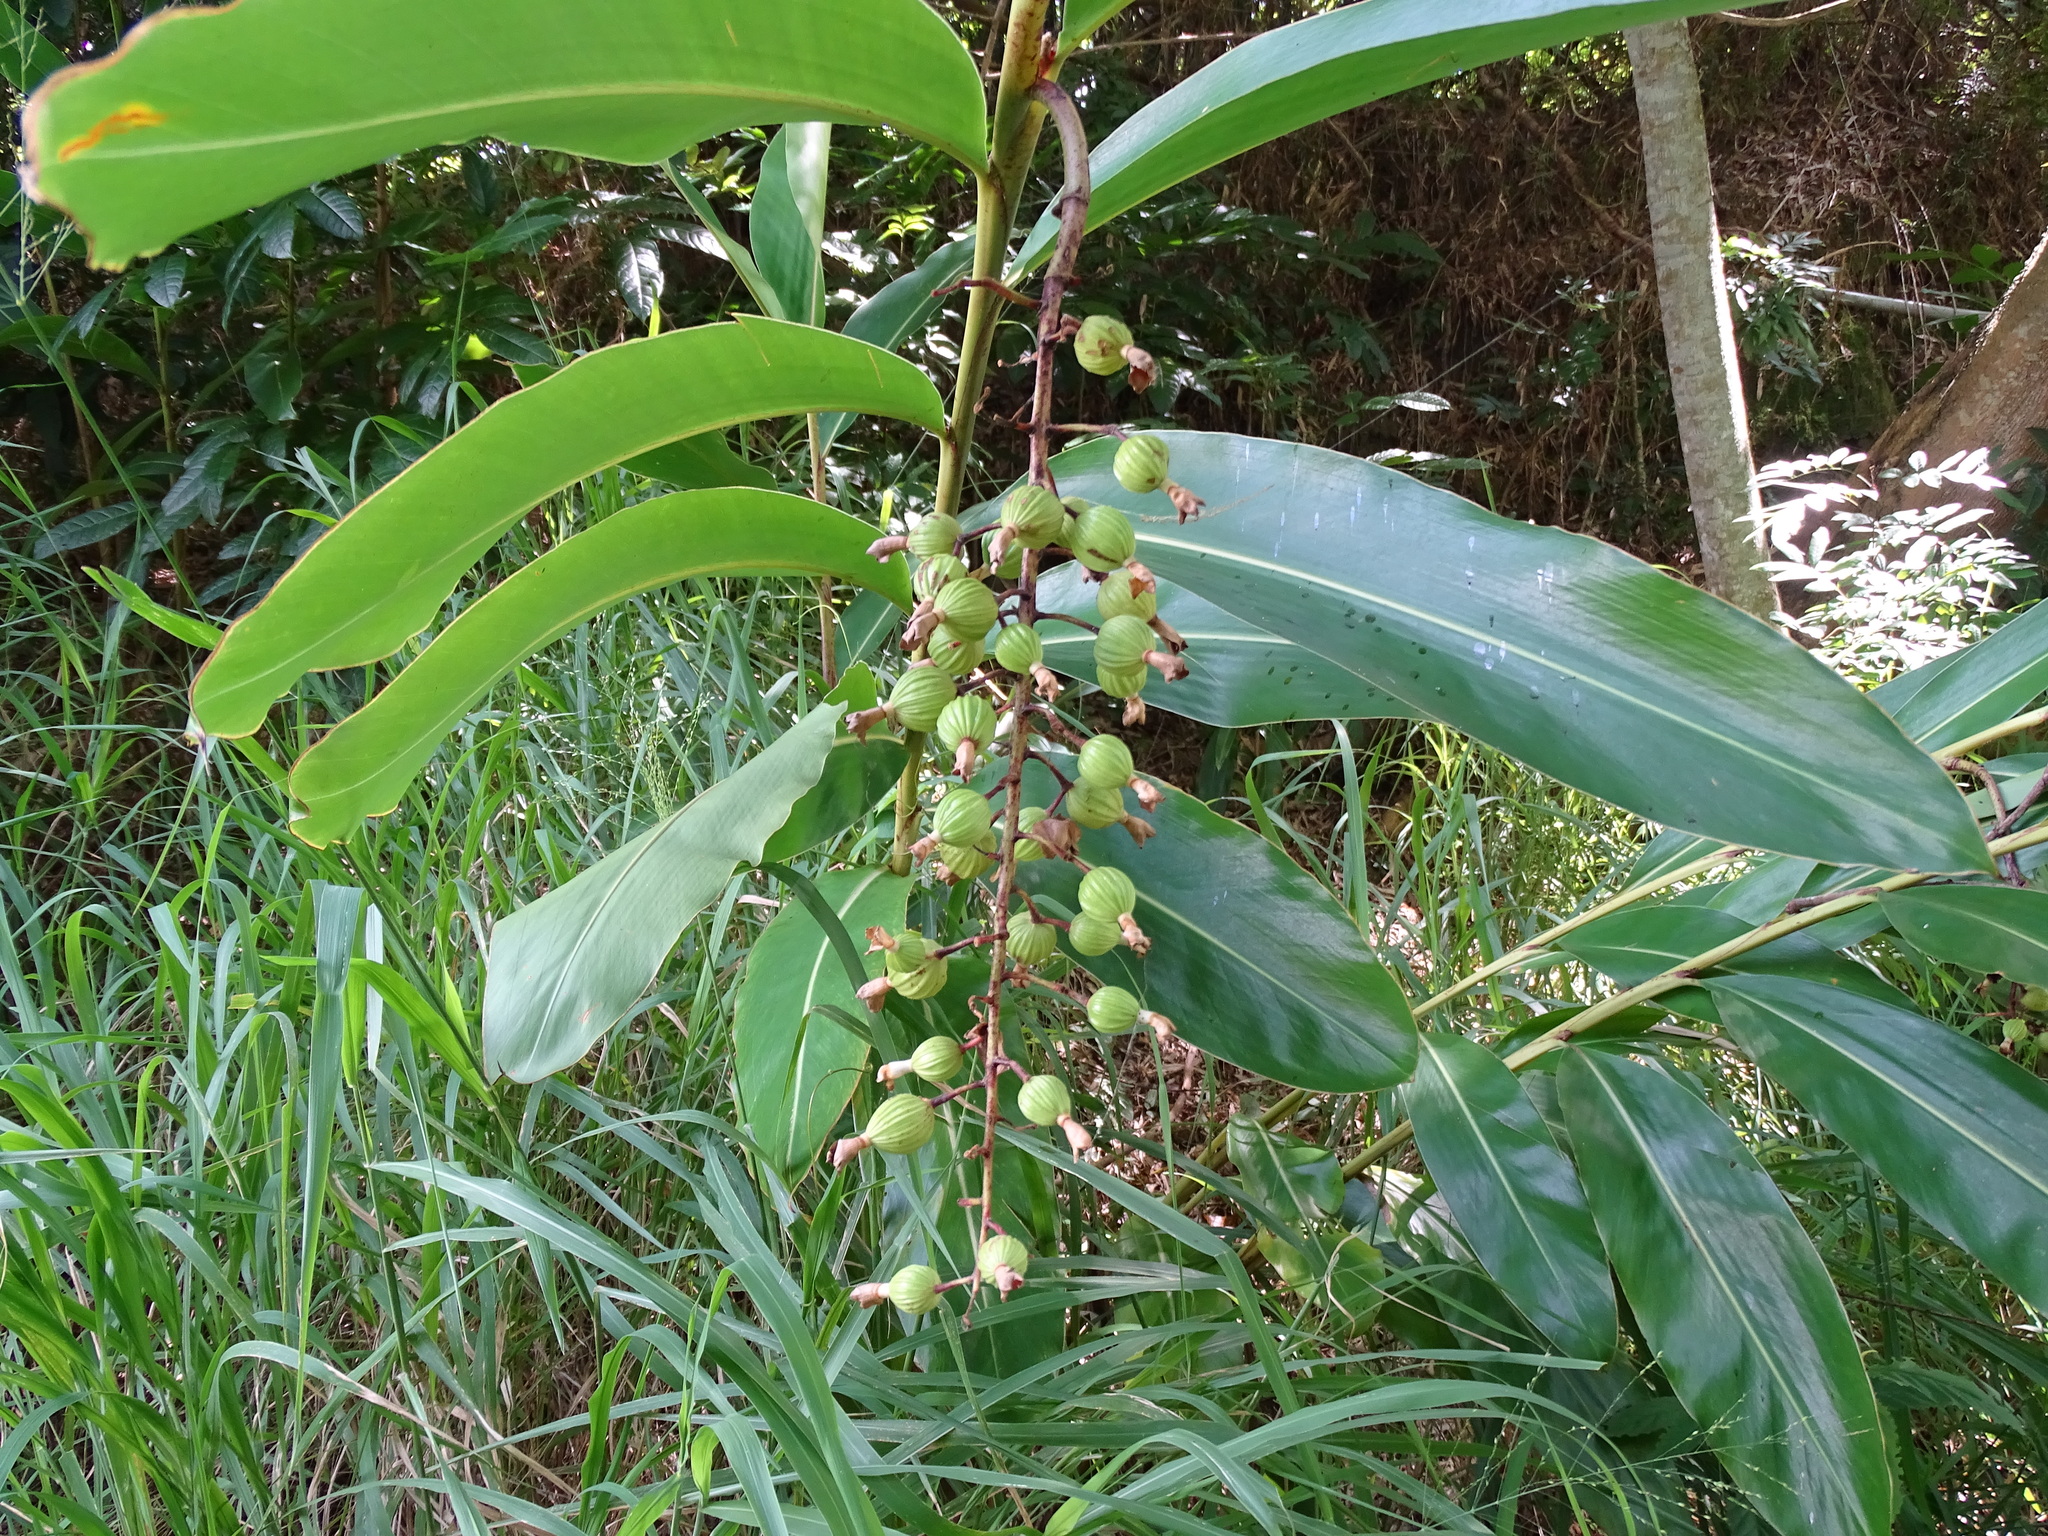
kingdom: Plantae
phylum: Tracheophyta
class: Liliopsida
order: Zingiberales
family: Zingiberaceae
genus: Alpinia
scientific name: Alpinia zerumbet
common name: Shellplant
